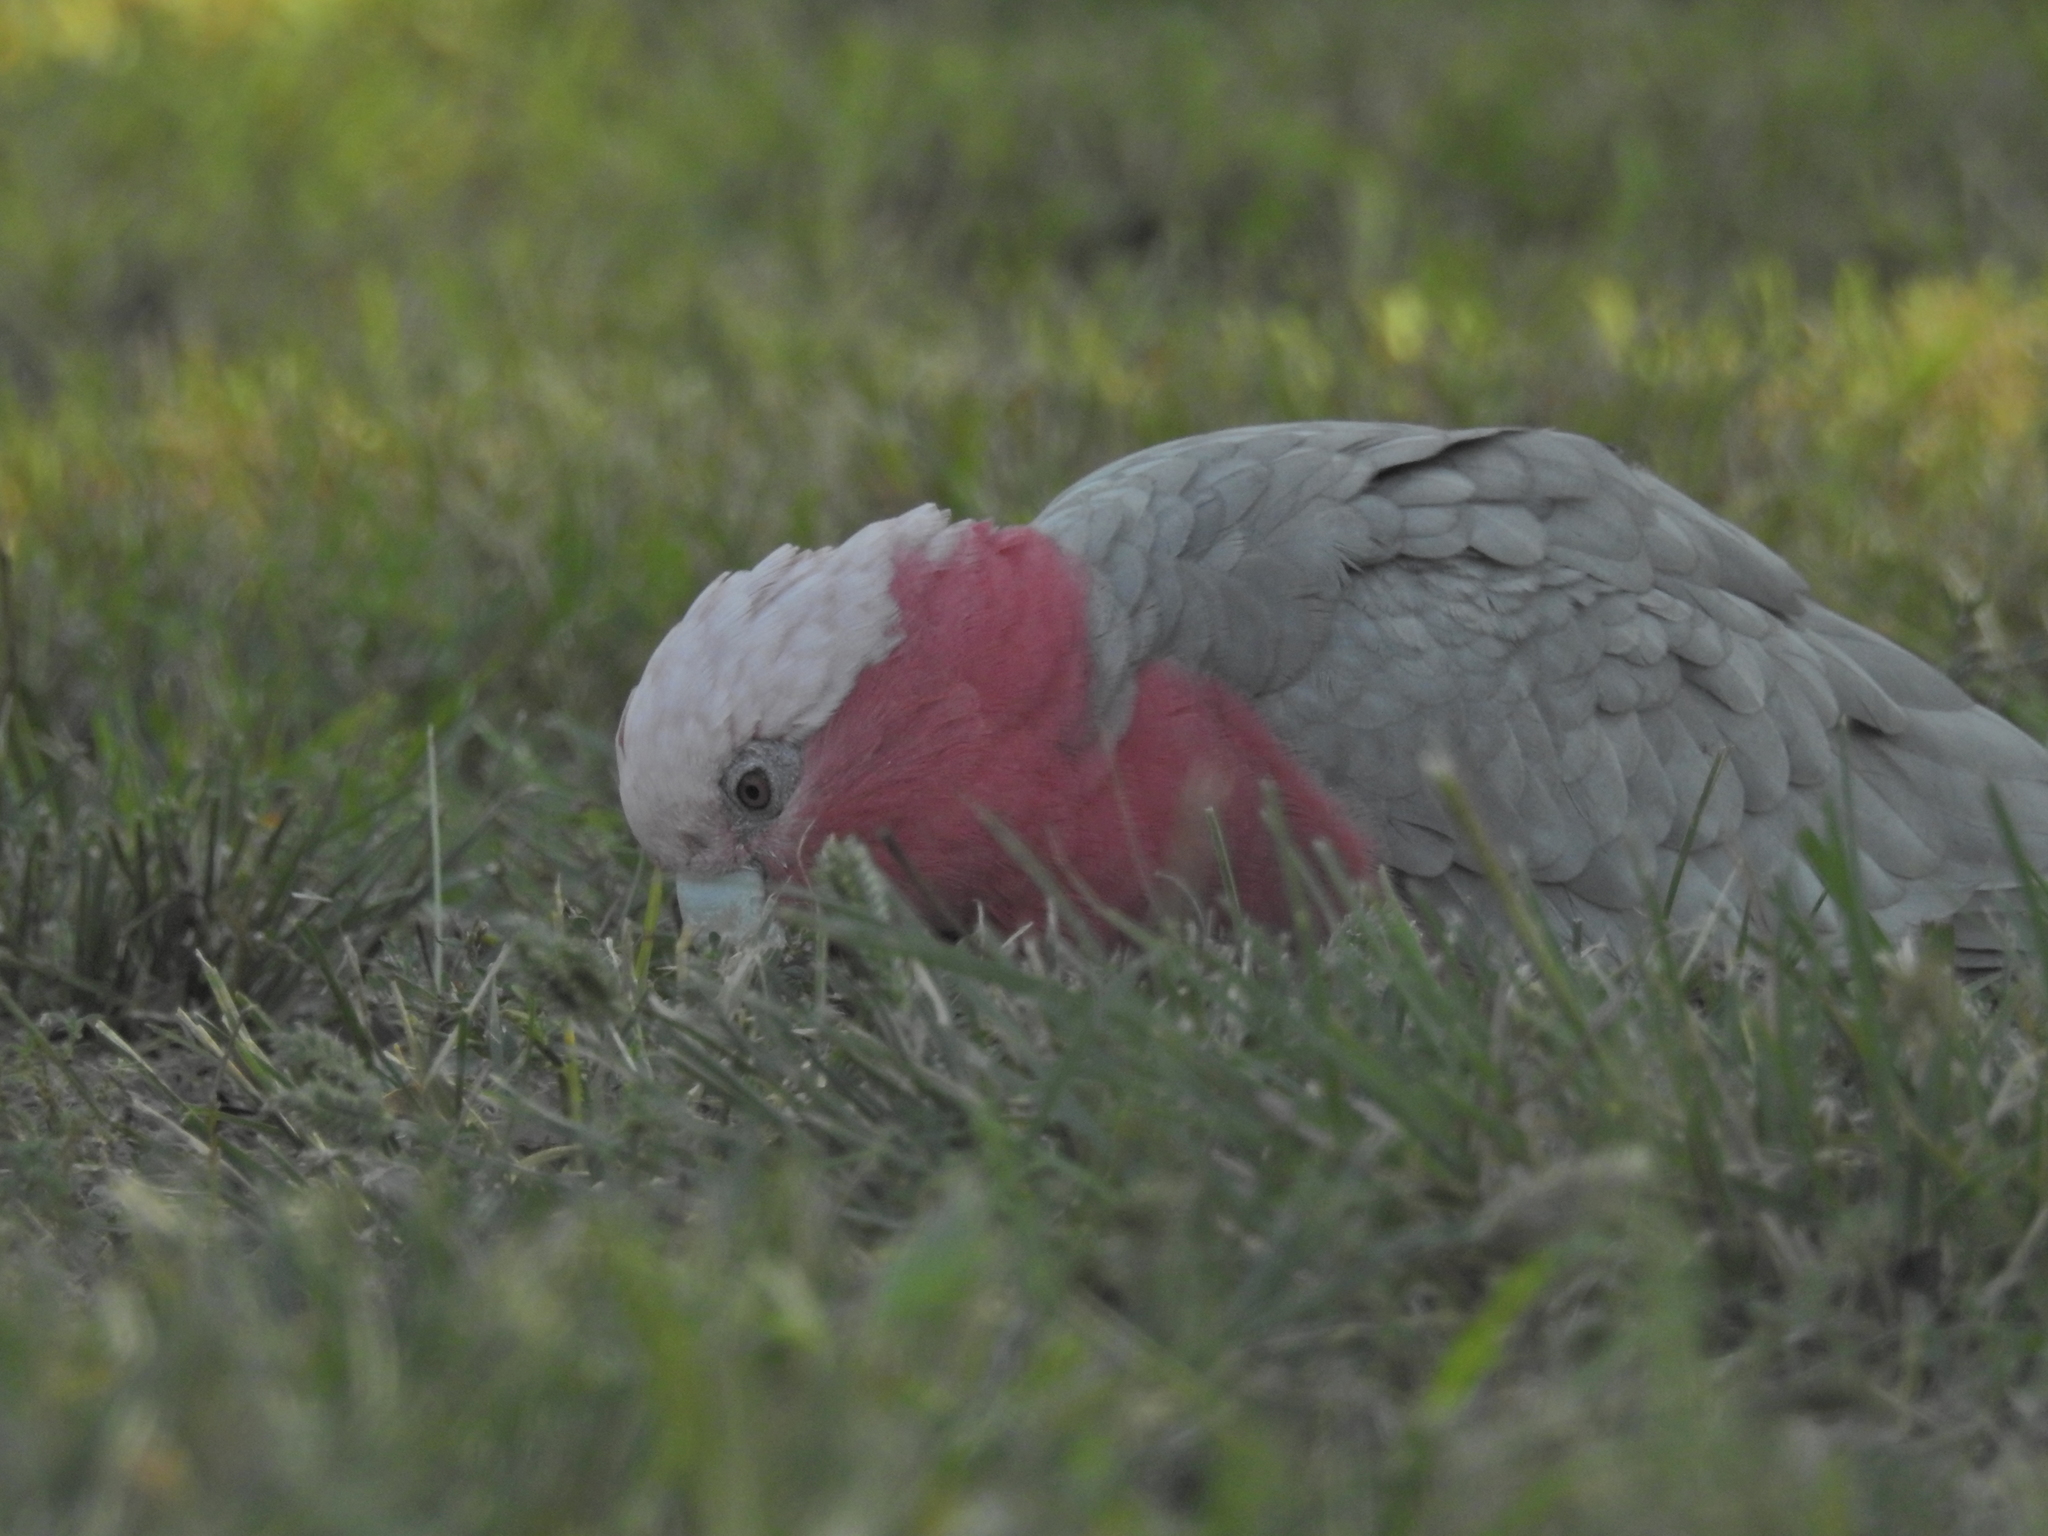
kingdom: Animalia
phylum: Chordata
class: Aves
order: Psittaciformes
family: Psittacidae
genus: Eolophus
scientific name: Eolophus roseicapilla
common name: Galah
